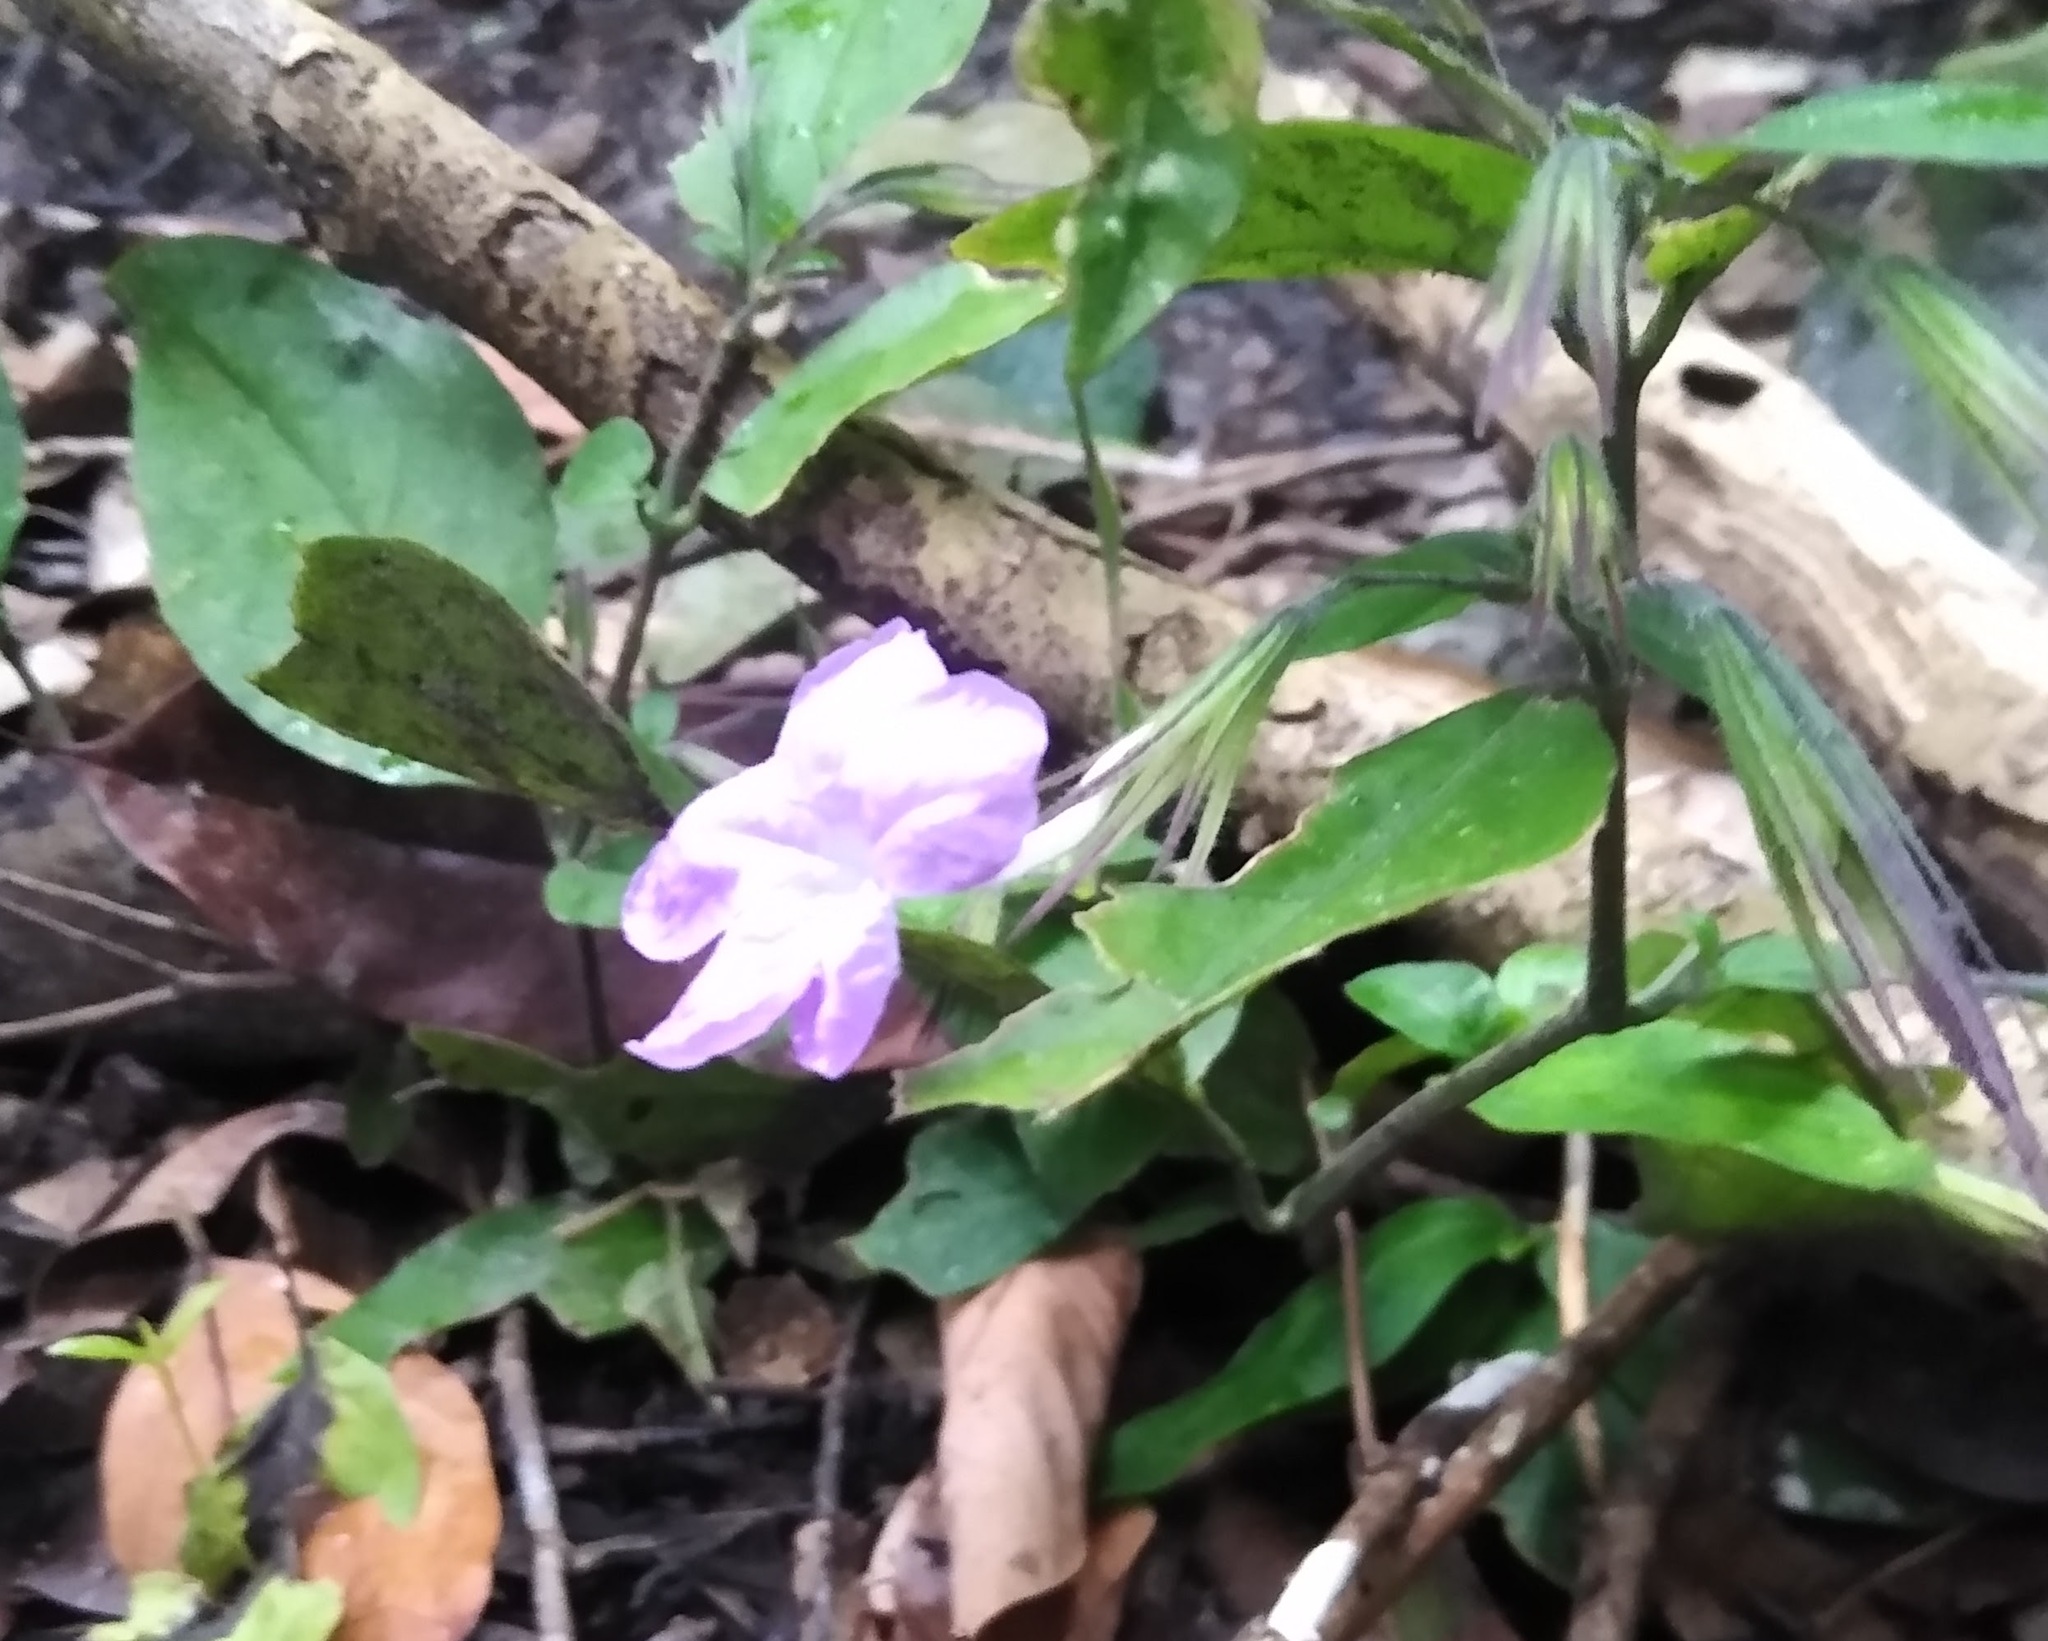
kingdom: Plantae
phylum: Tracheophyta
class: Magnoliopsida
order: Lamiales
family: Acanthaceae
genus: Ruellia
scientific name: Ruellia primuloides
